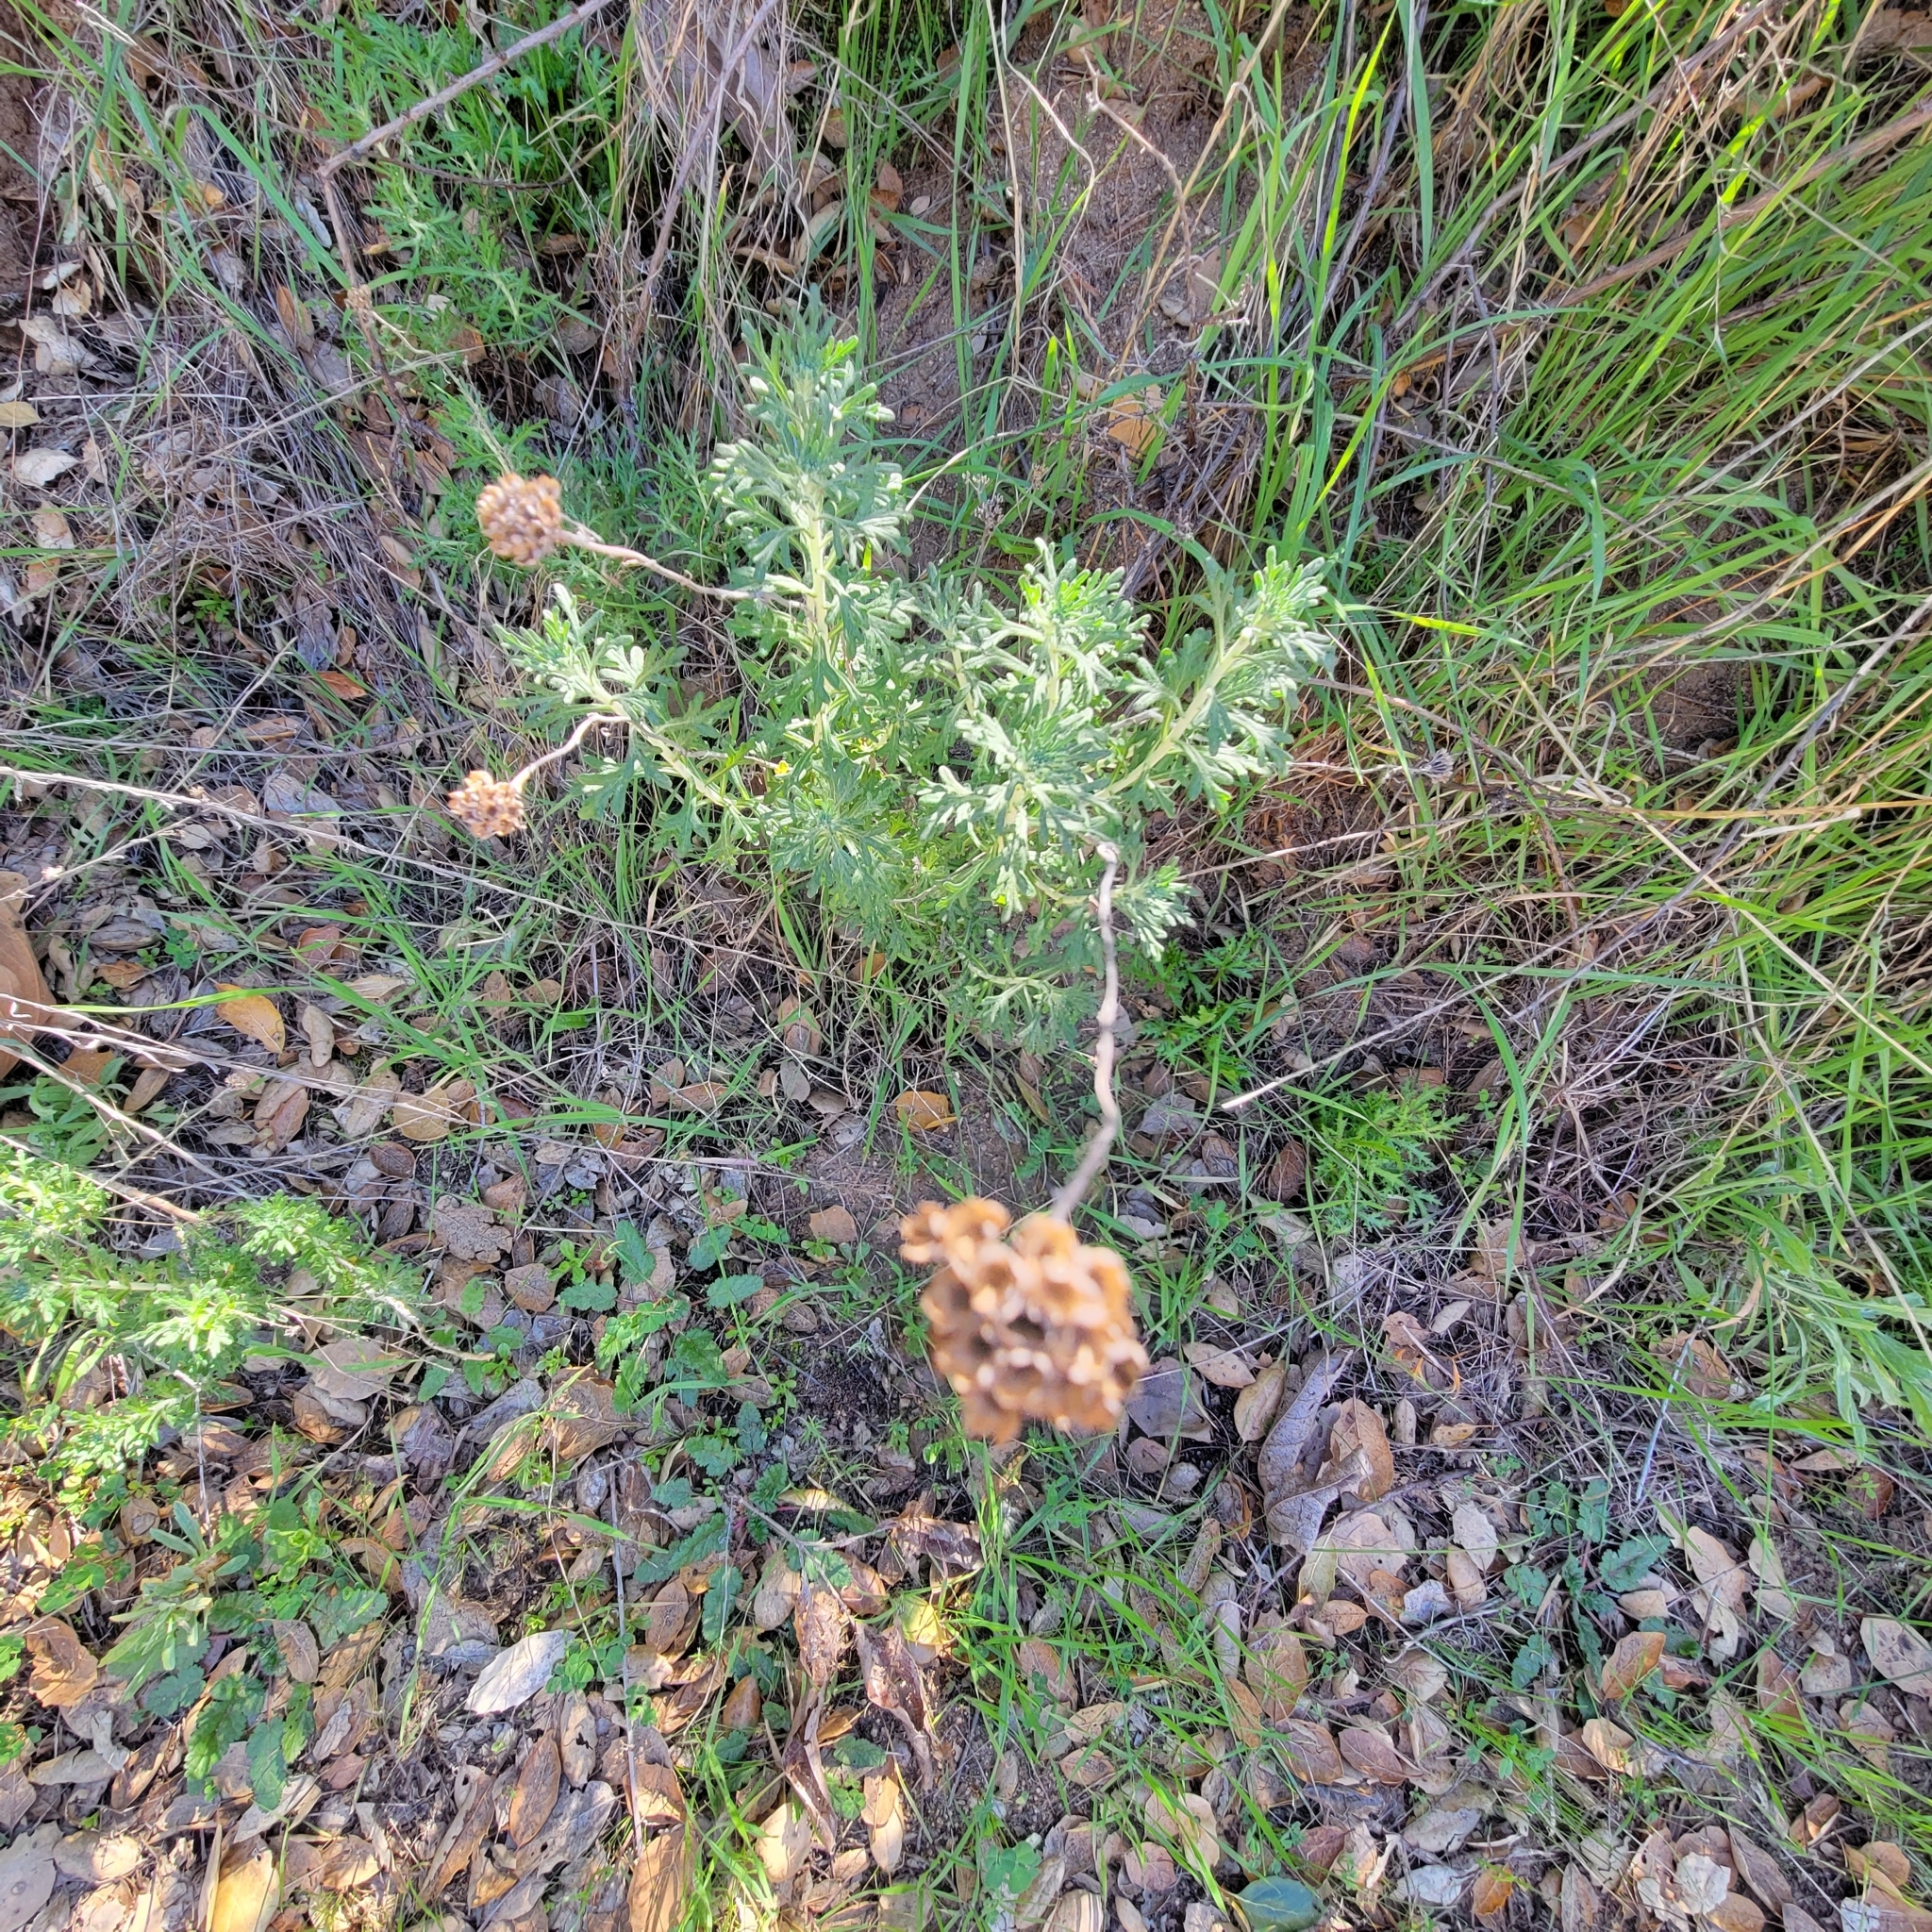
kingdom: Plantae
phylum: Tracheophyta
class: Magnoliopsida
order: Asterales
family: Asteraceae
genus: Eriophyllum
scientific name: Eriophyllum confertiflorum
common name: Golden-yarrow
